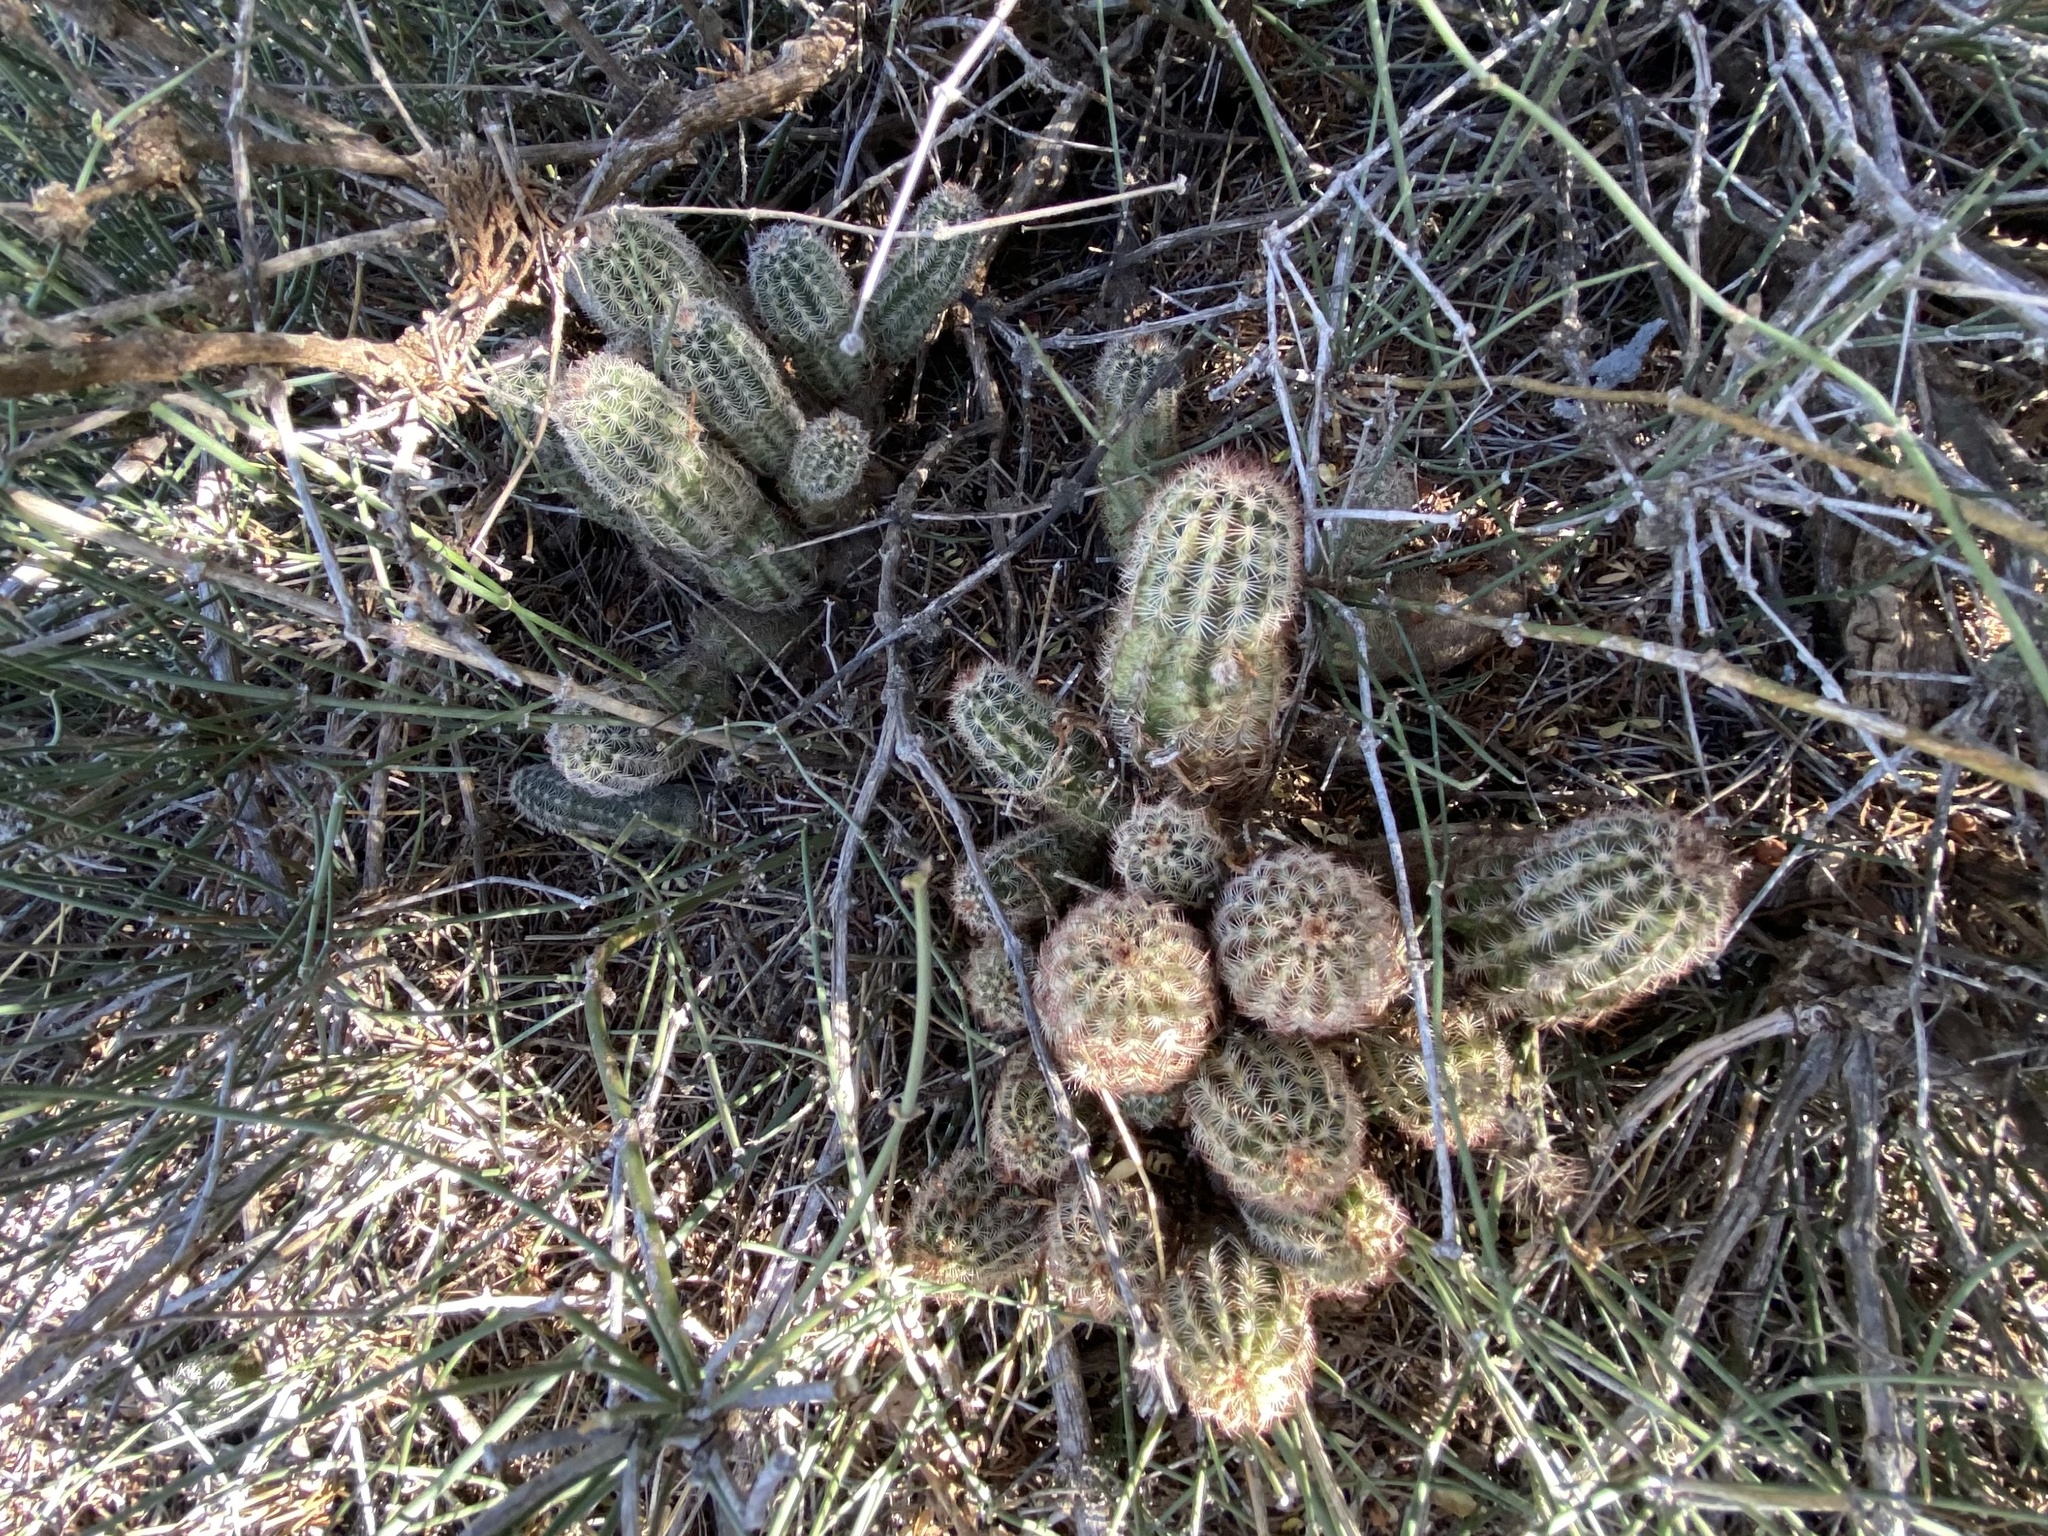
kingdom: Plantae
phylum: Tracheophyta
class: Magnoliopsida
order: Caryophyllales
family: Cactaceae
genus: Echinocereus
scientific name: Echinocereus reichenbachii
